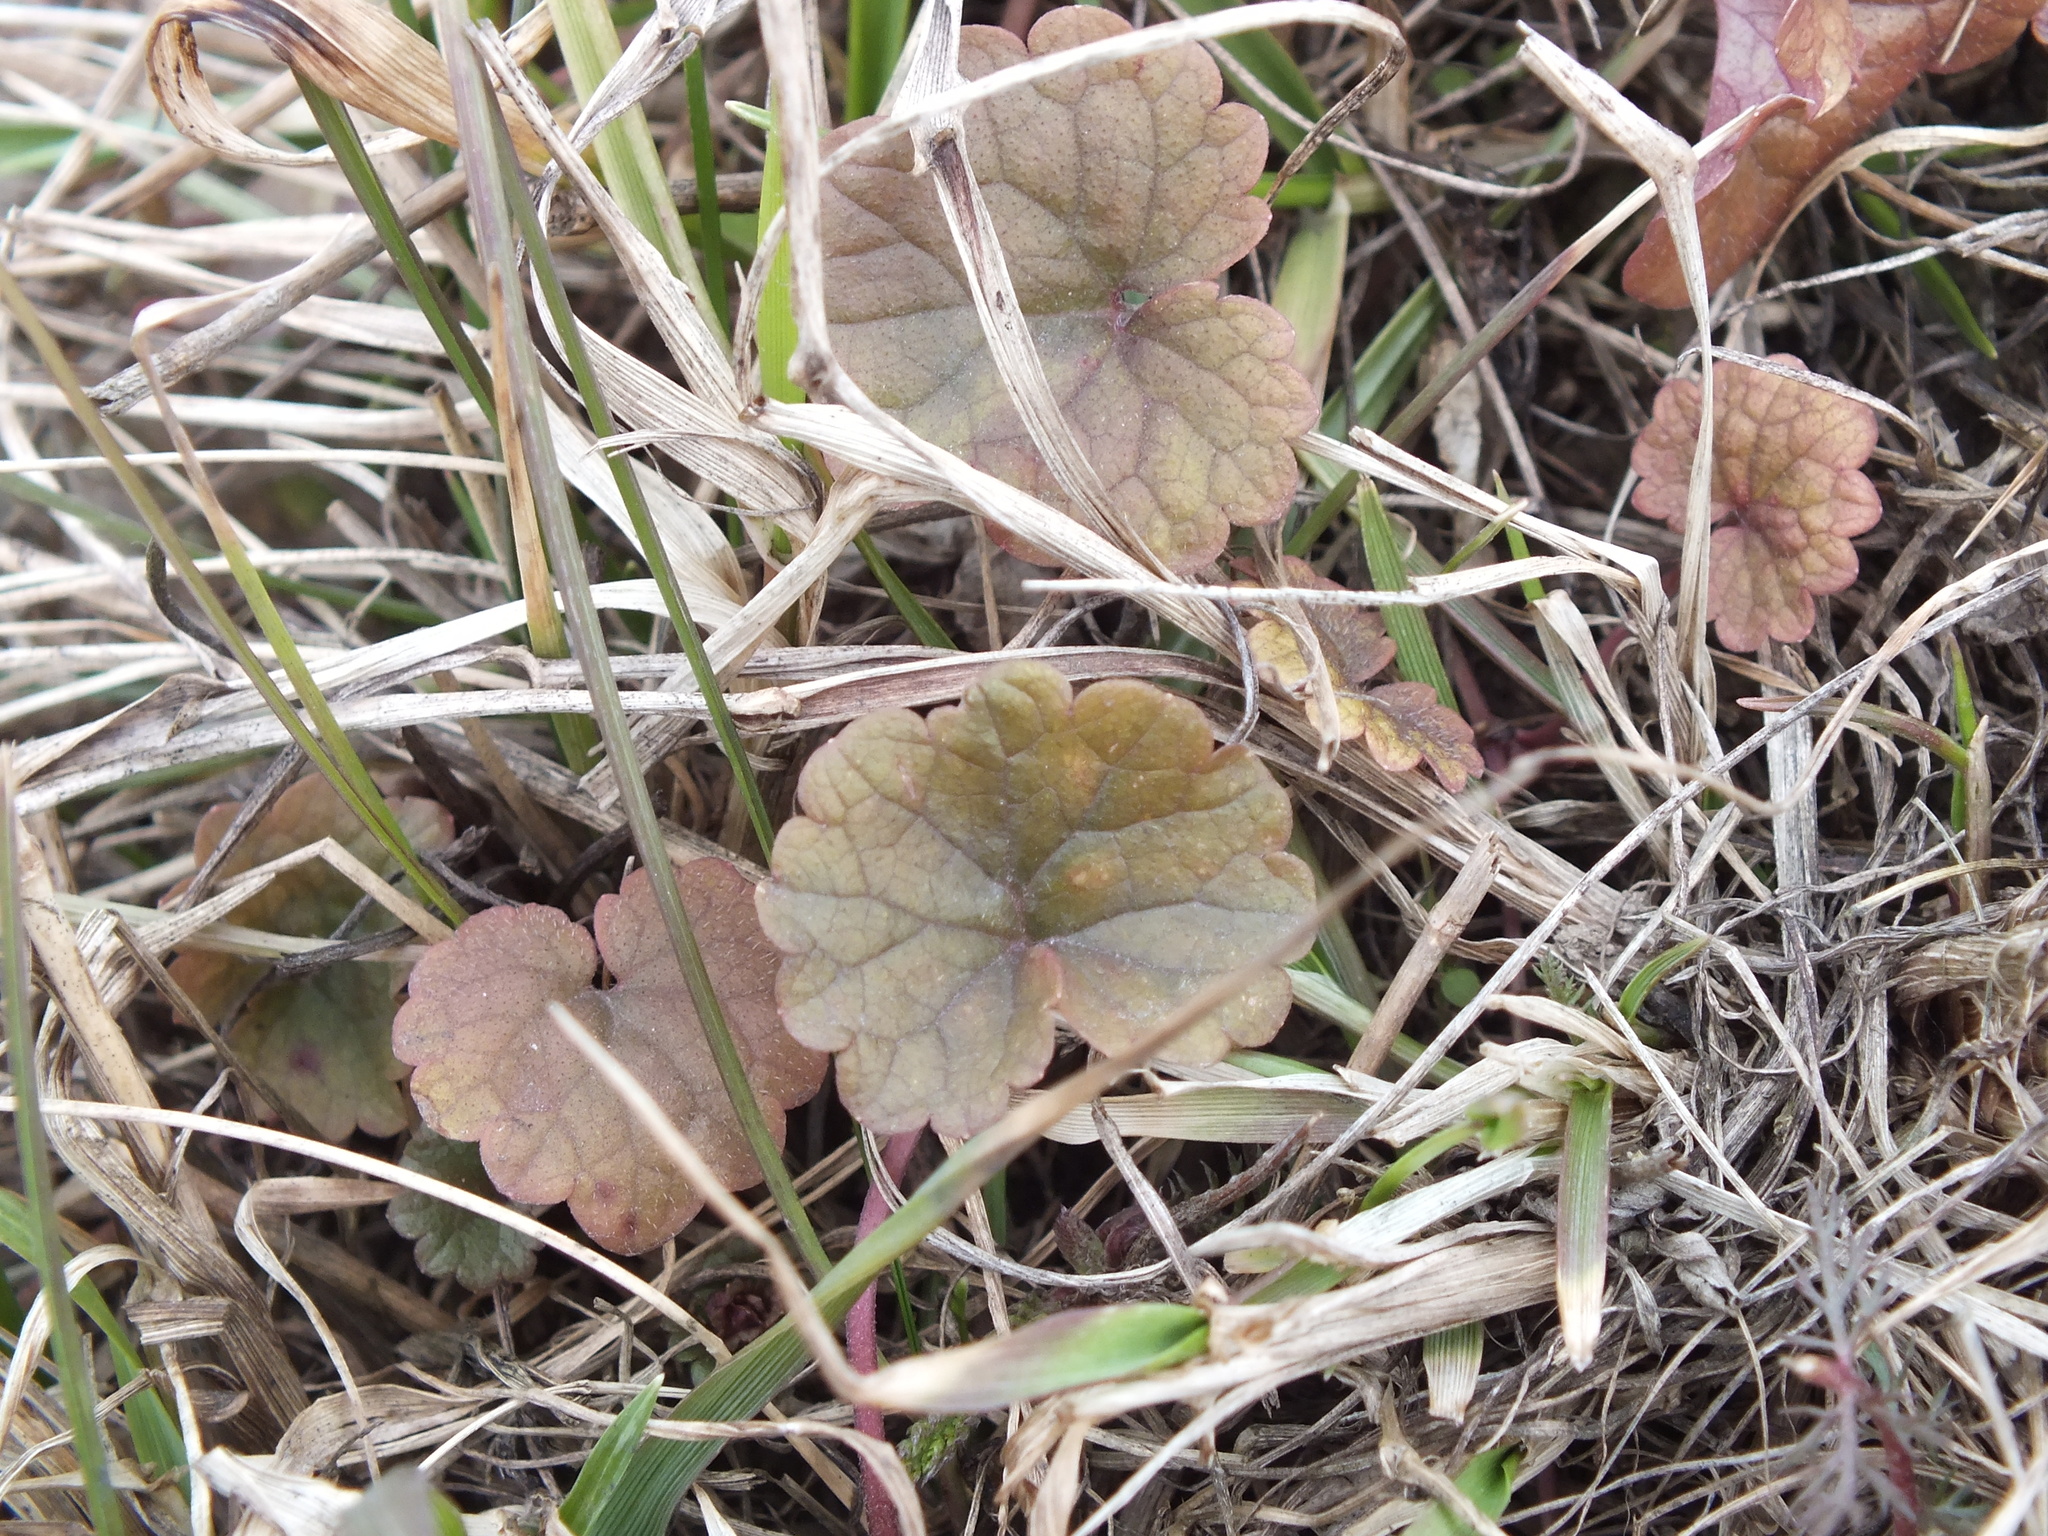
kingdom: Plantae
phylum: Tracheophyta
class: Magnoliopsida
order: Lamiales
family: Lamiaceae
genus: Glechoma
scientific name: Glechoma hederacea
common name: Ground ivy
